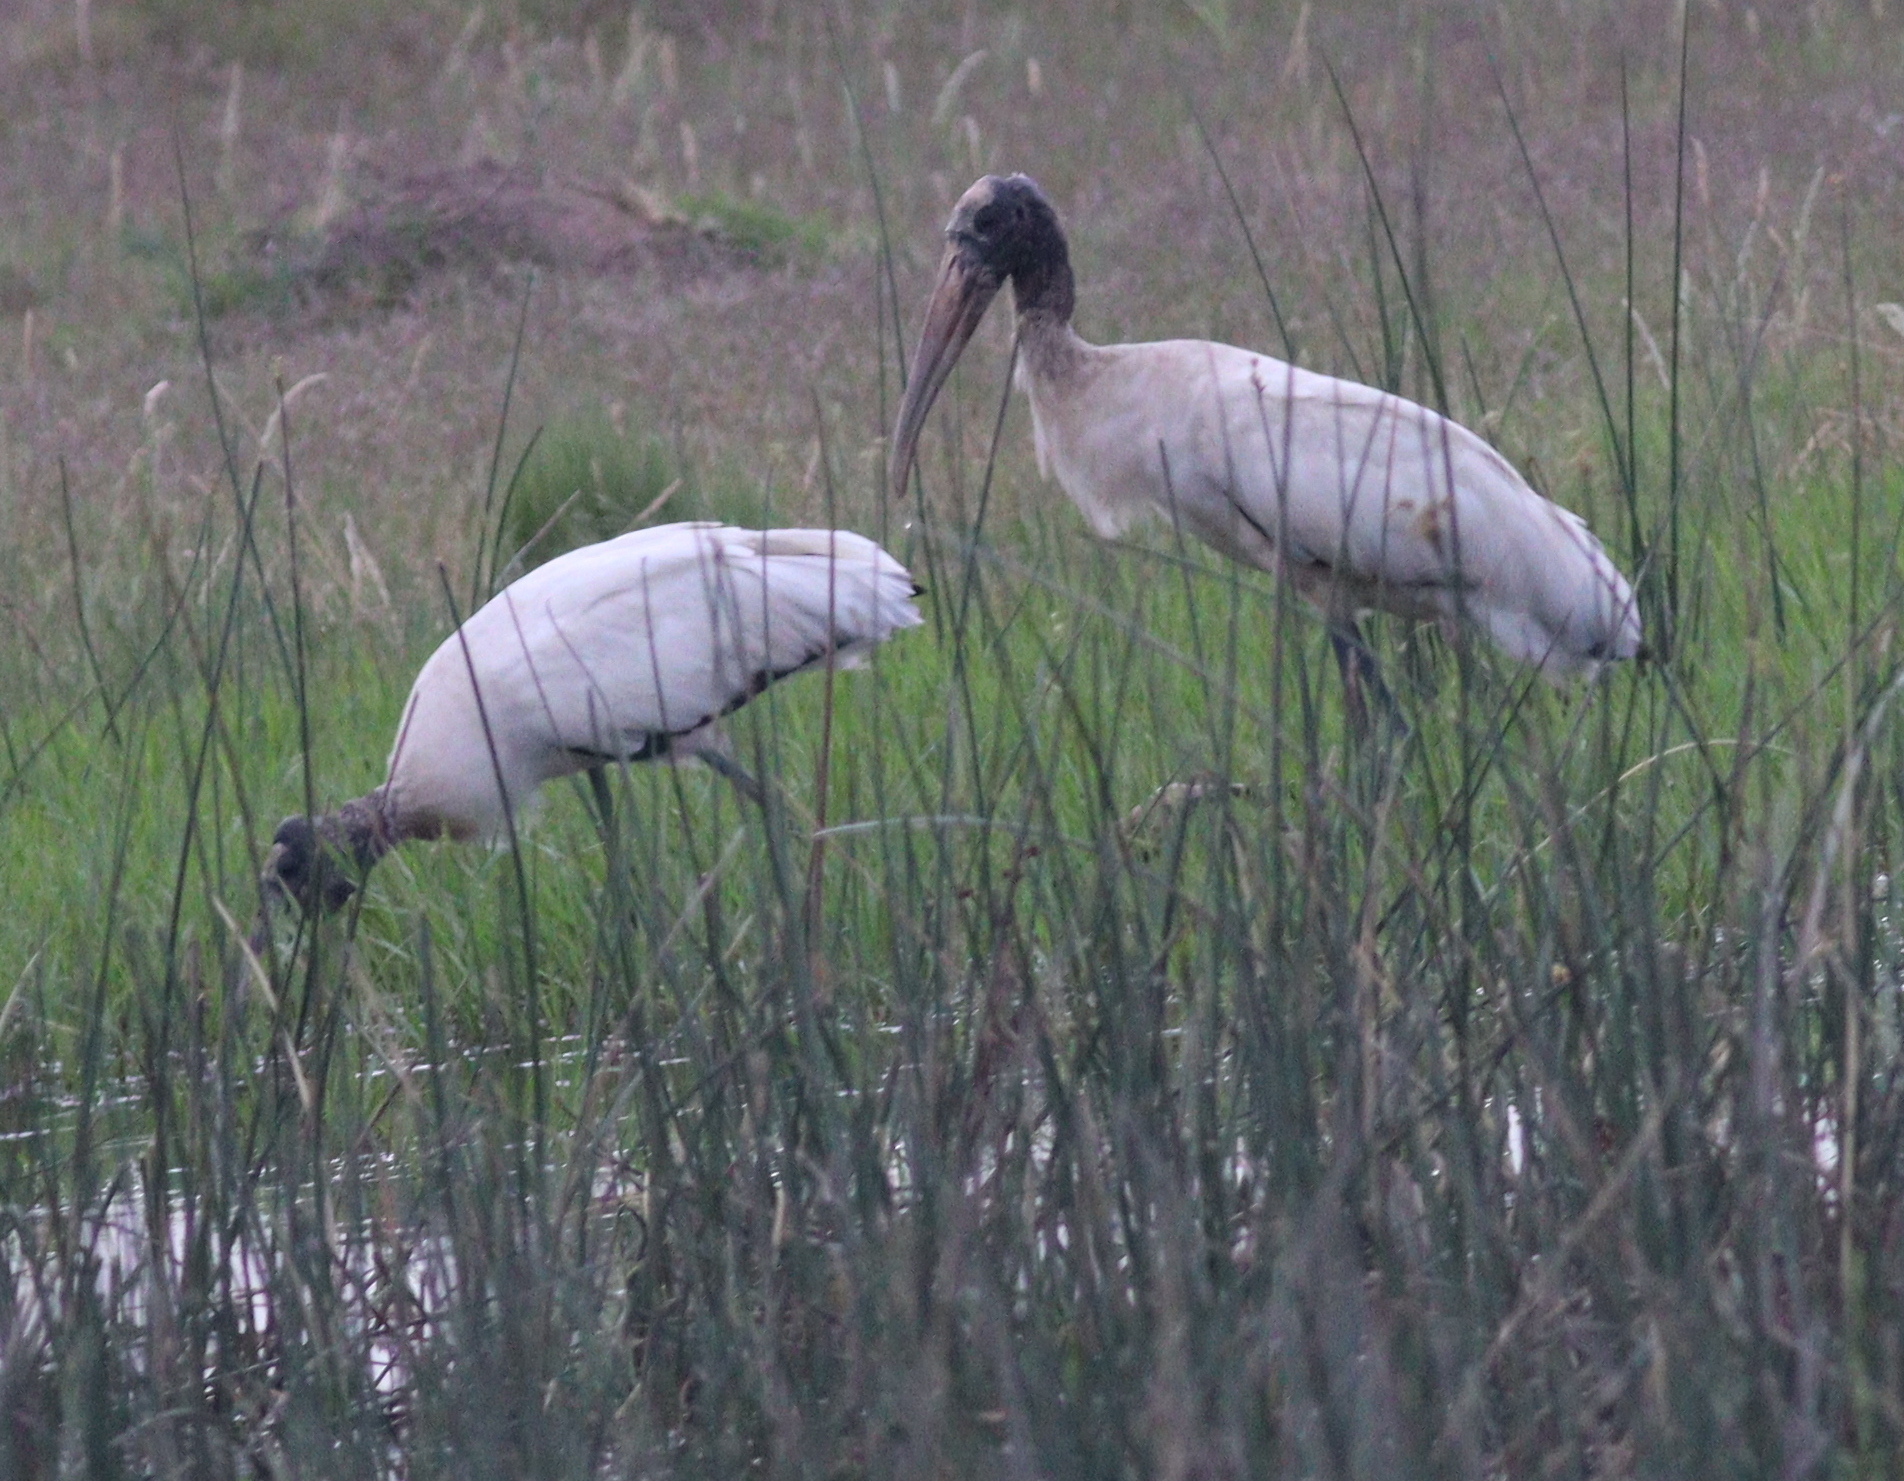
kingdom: Animalia
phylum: Chordata
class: Aves
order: Ciconiiformes
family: Ciconiidae
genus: Mycteria
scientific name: Mycteria americana
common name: Wood stork
